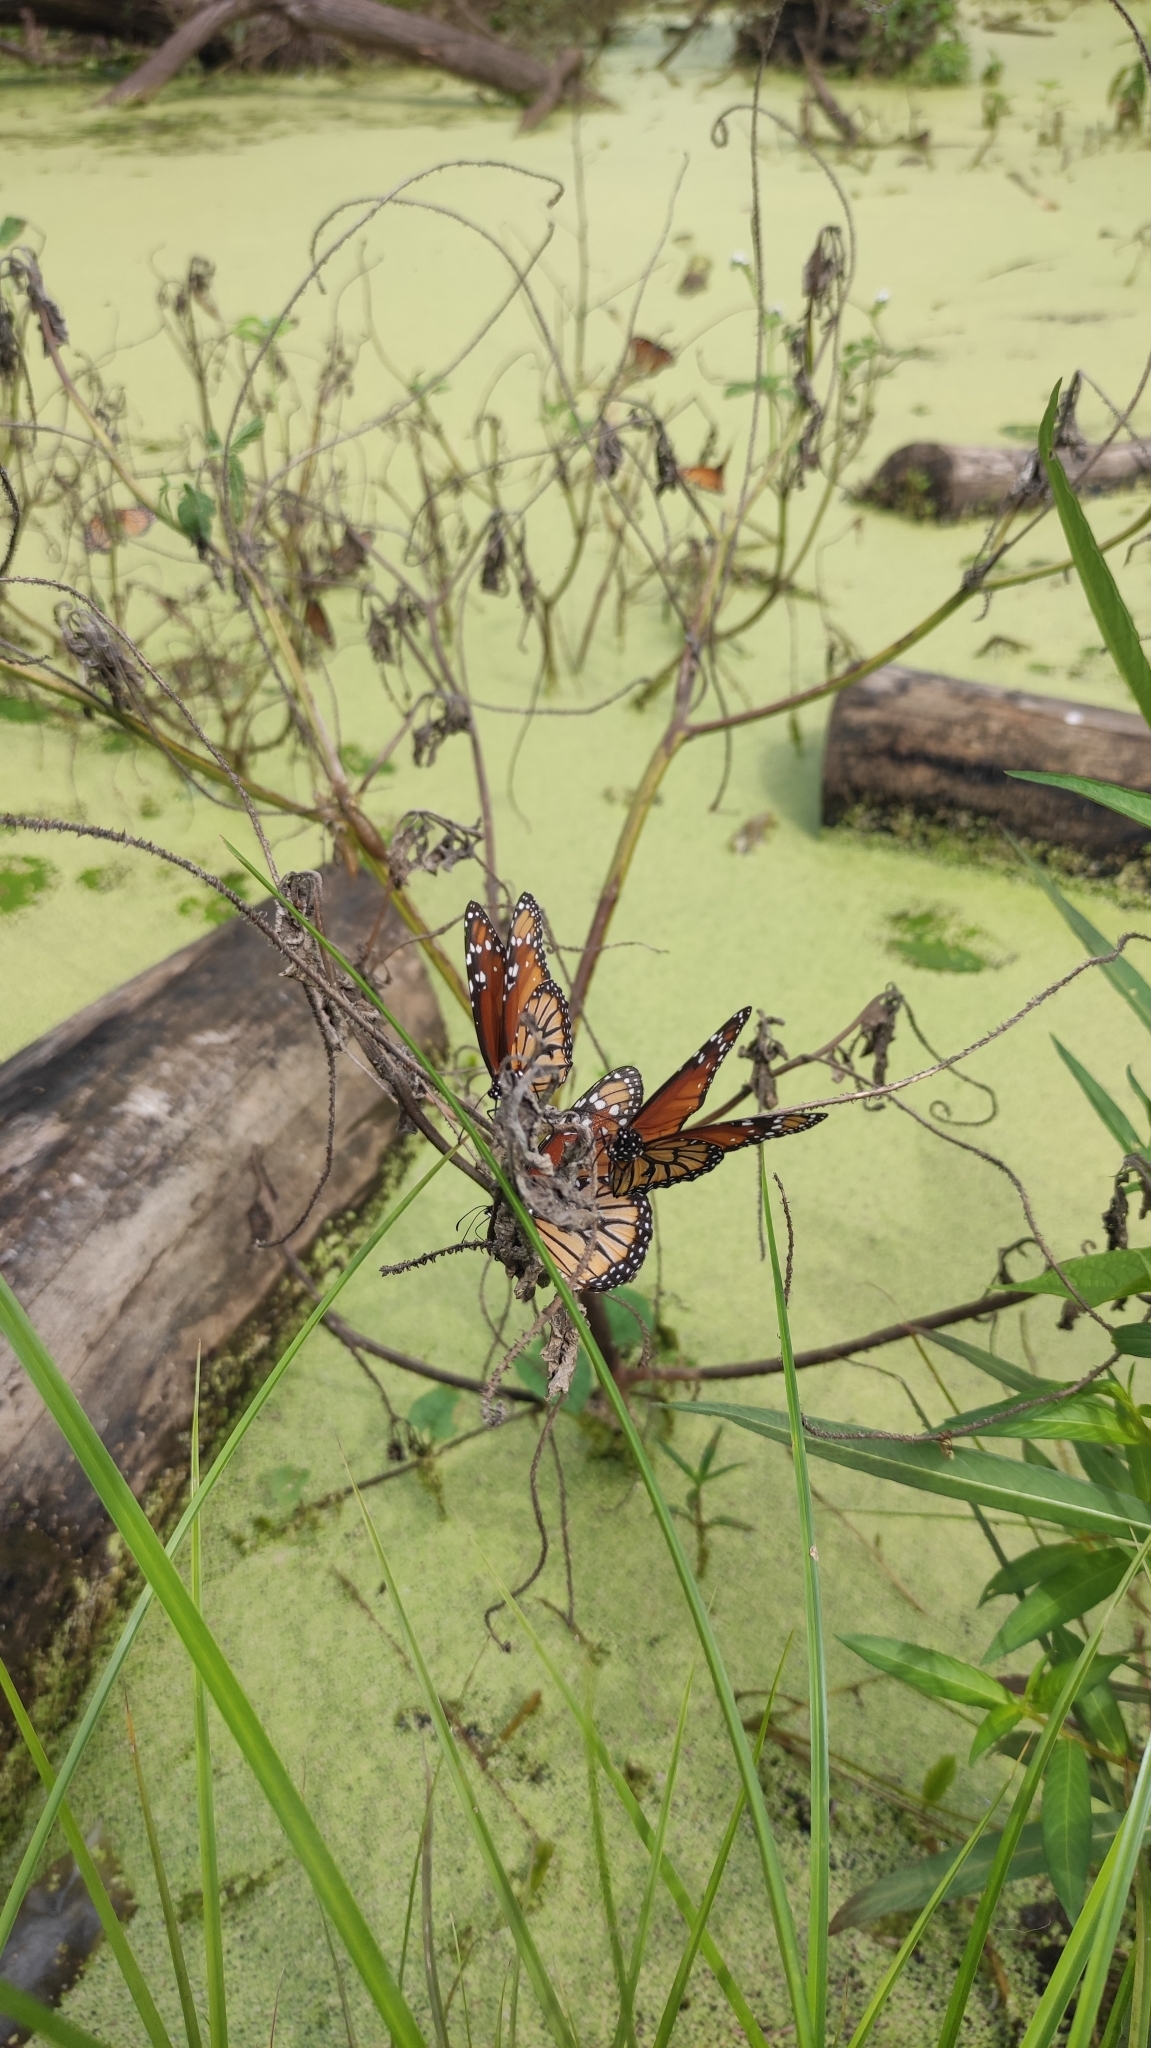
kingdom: Animalia
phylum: Arthropoda
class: Insecta
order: Lepidoptera
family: Nymphalidae
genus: Danaus
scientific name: Danaus gilippus
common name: Queen
